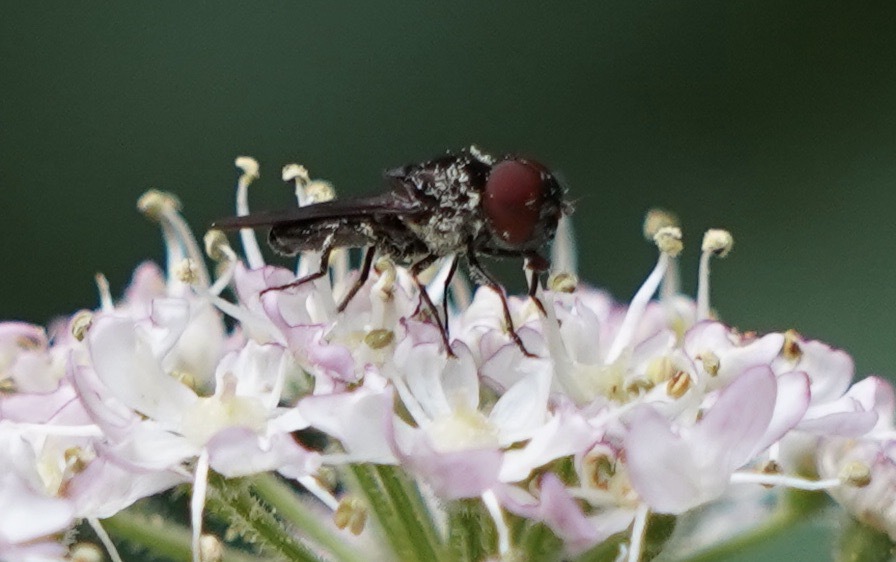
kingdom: Animalia
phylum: Arthropoda
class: Insecta
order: Diptera
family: Syrphidae
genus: Chrysogaster
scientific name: Chrysogaster solstitialis
